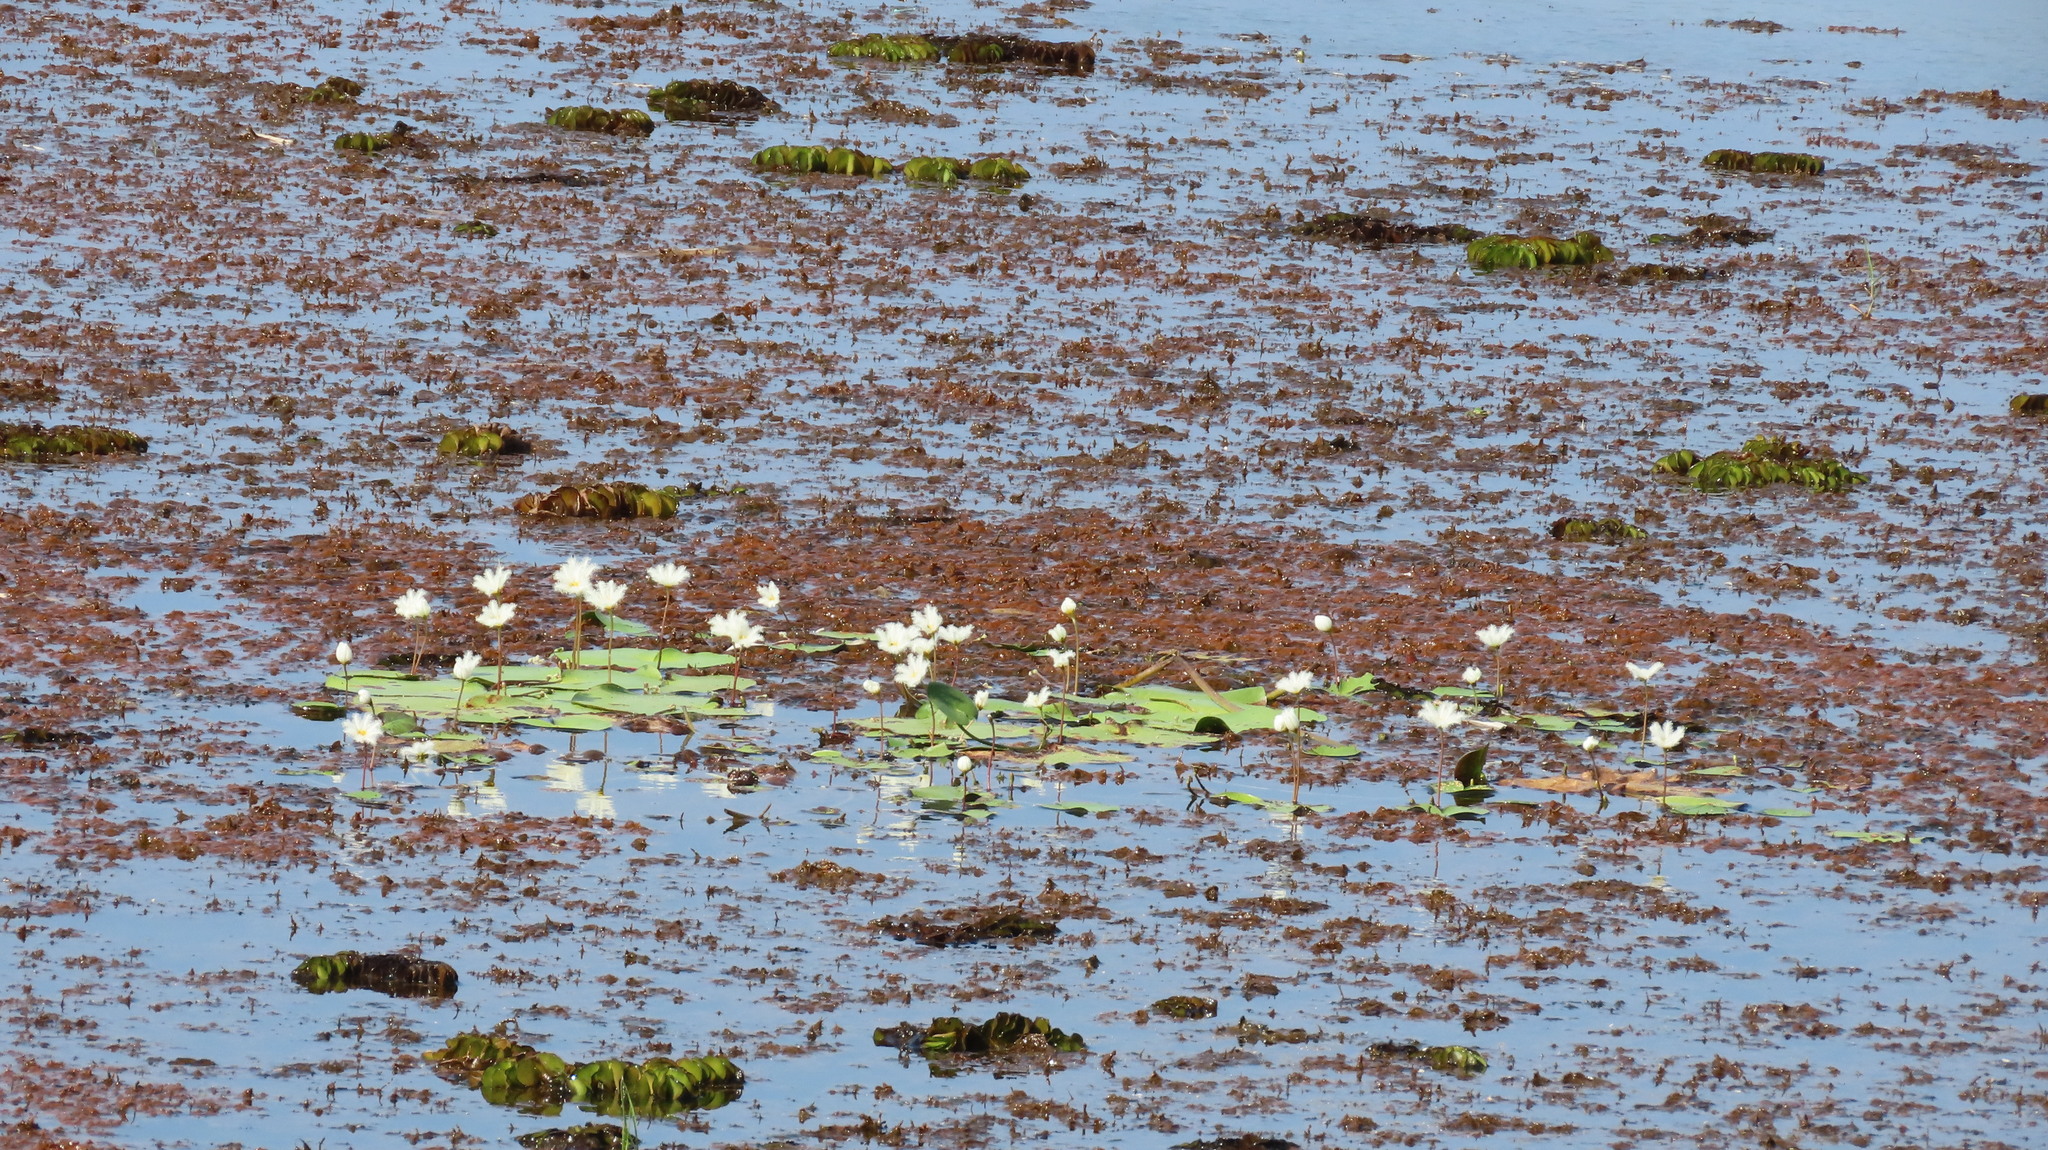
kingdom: Plantae
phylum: Tracheophyta
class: Magnoliopsida
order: Asterales
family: Menyanthaceae
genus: Nymphoides
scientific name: Nymphoides indica
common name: Water-snowflake
